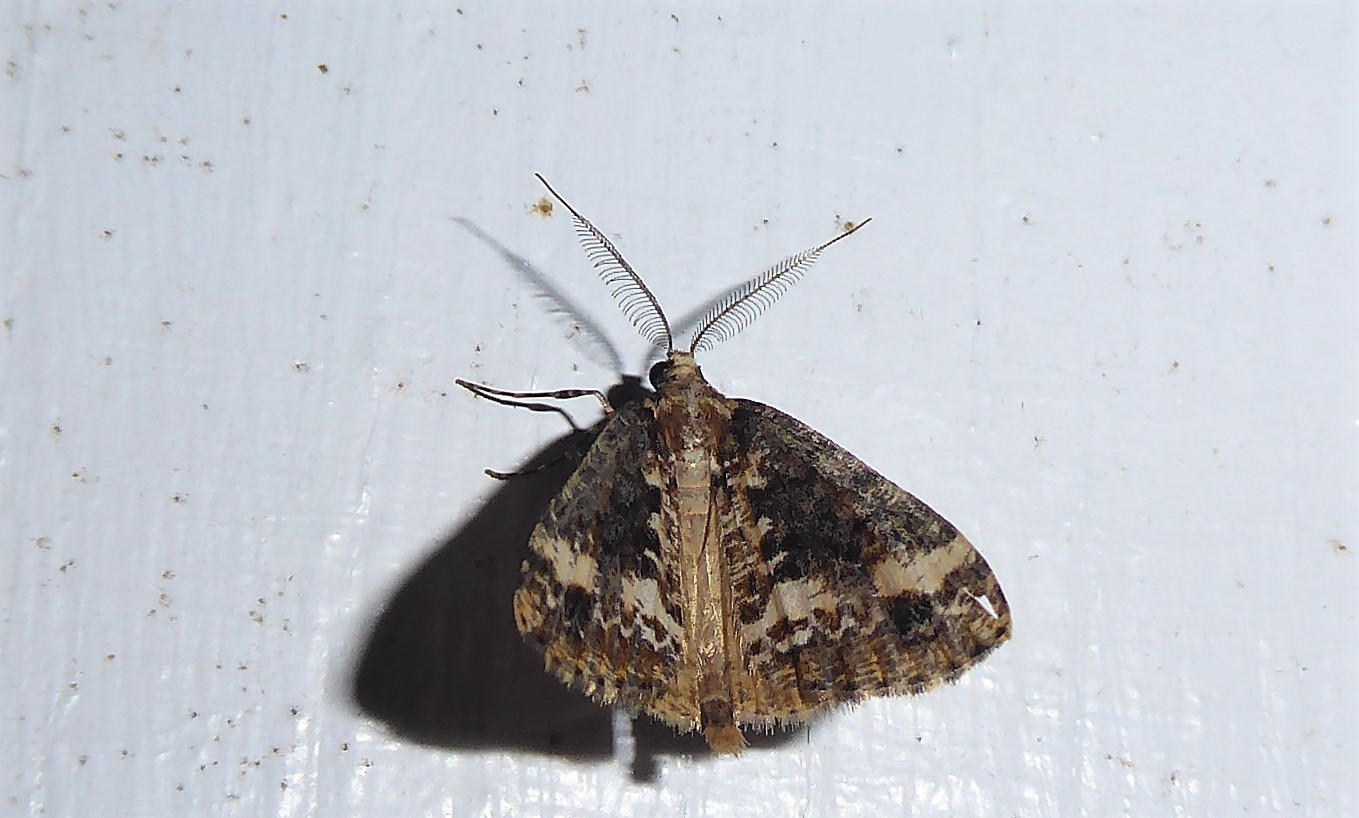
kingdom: Animalia
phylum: Arthropoda
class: Insecta
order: Lepidoptera
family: Geometridae
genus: Pseudocoremia
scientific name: Pseudocoremia leucelaea
